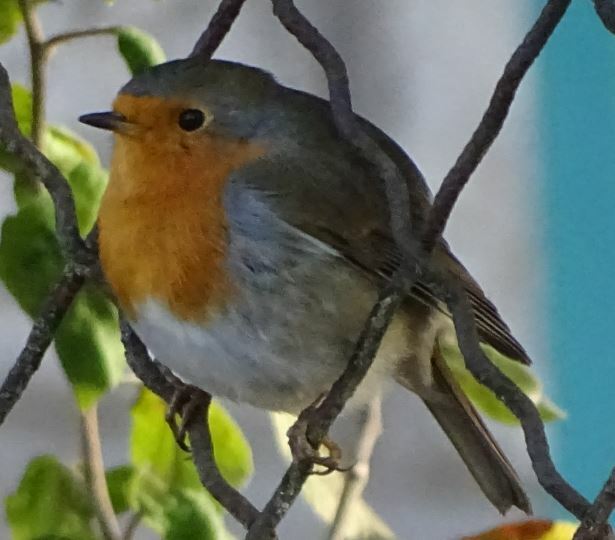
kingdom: Animalia
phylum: Chordata
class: Aves
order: Passeriformes
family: Muscicapidae
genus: Erithacus
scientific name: Erithacus rubecula
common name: European robin
